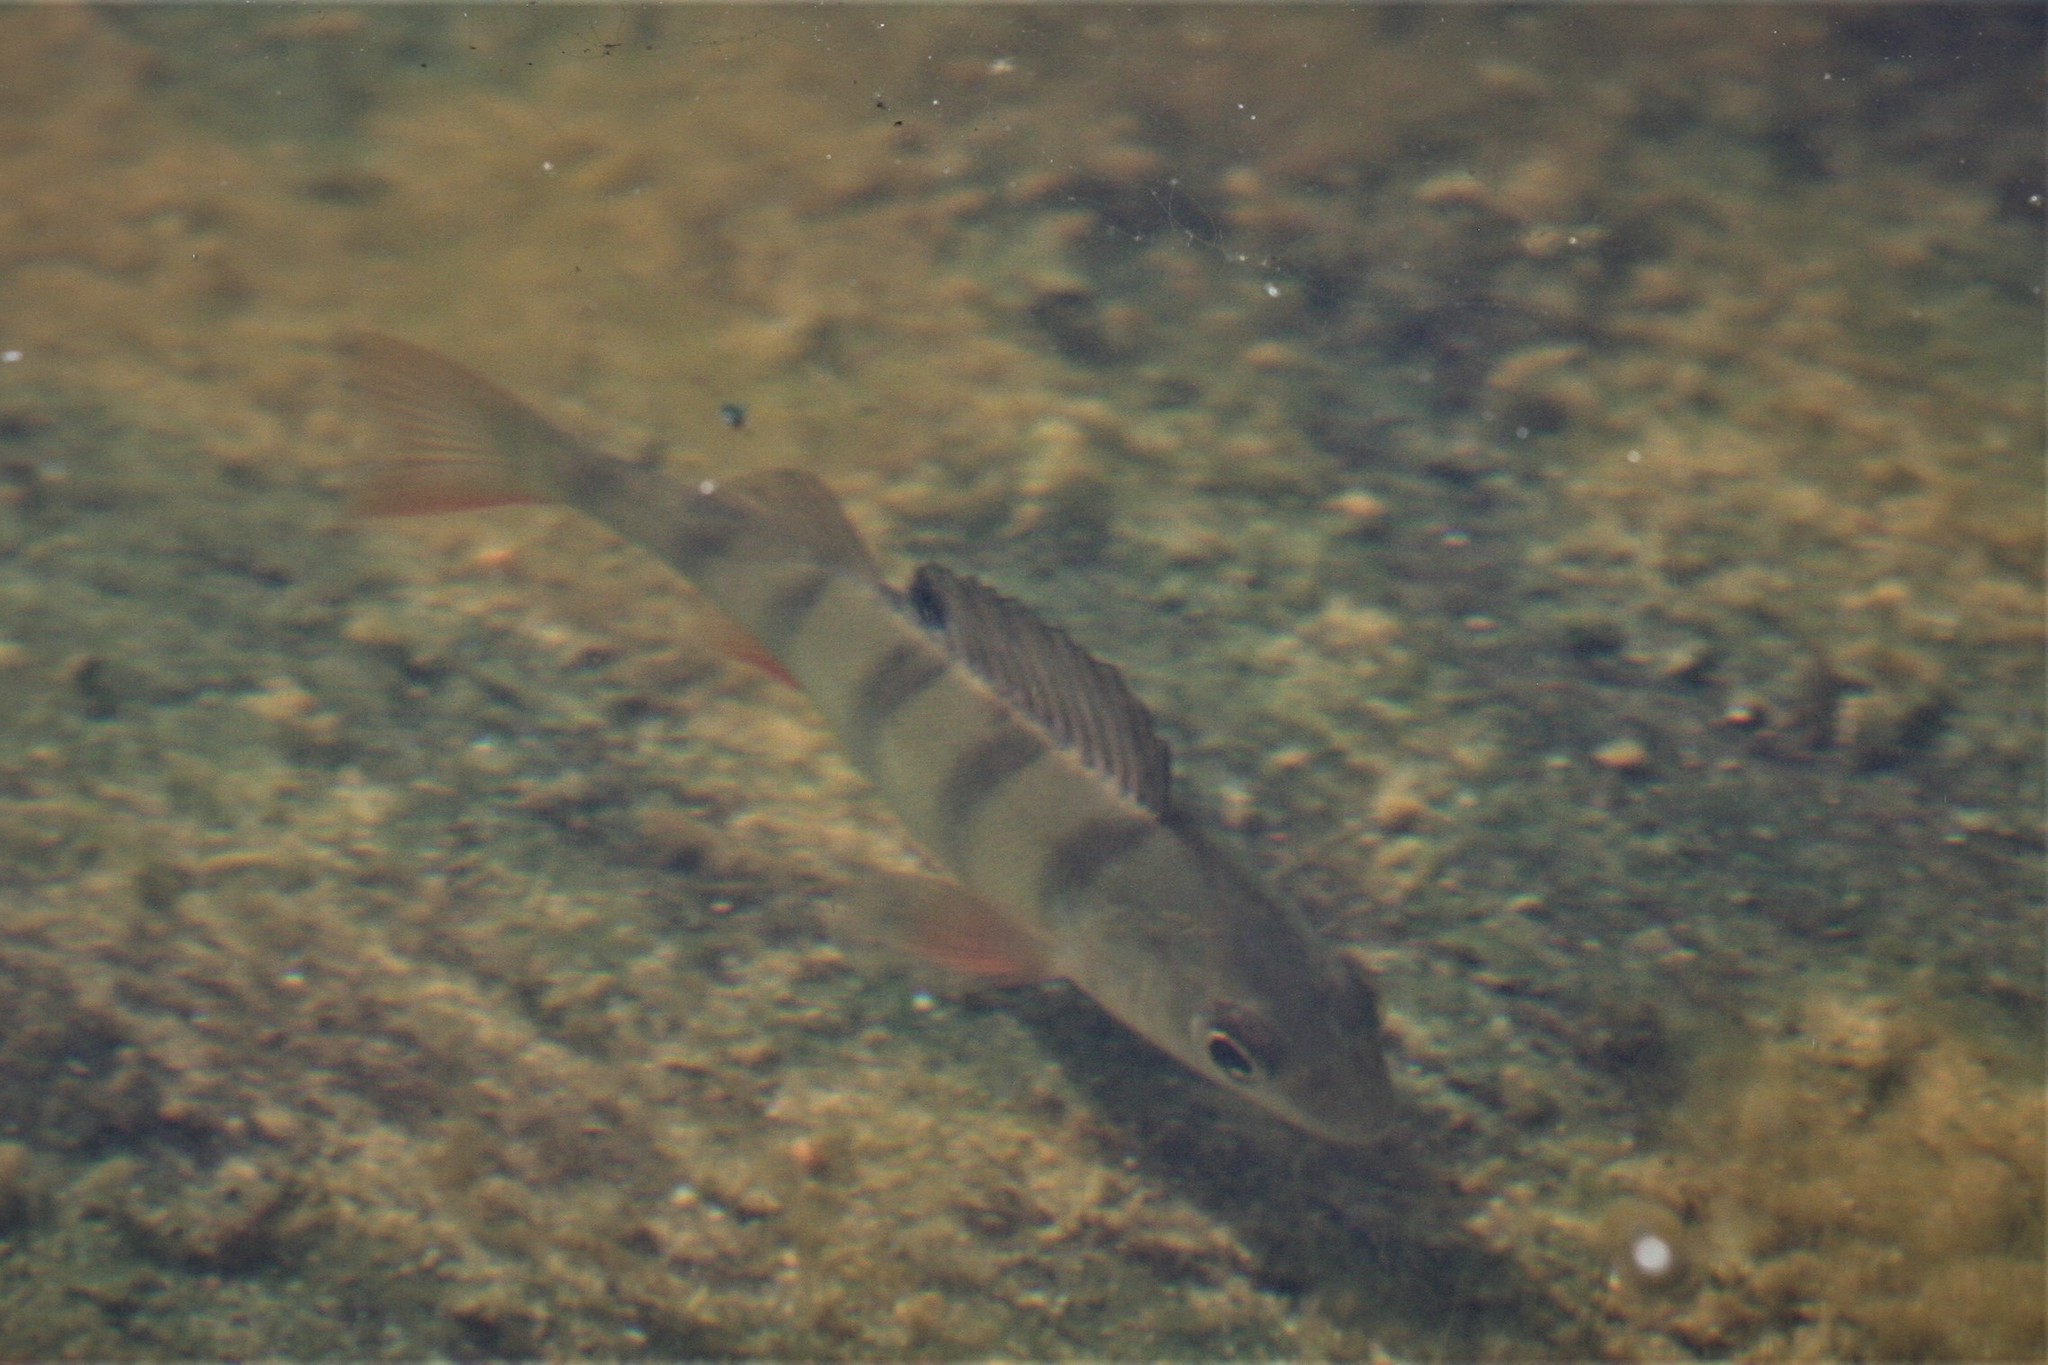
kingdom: Animalia
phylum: Chordata
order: Perciformes
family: Percidae
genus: Perca
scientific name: Perca fluviatilis
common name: Perch
